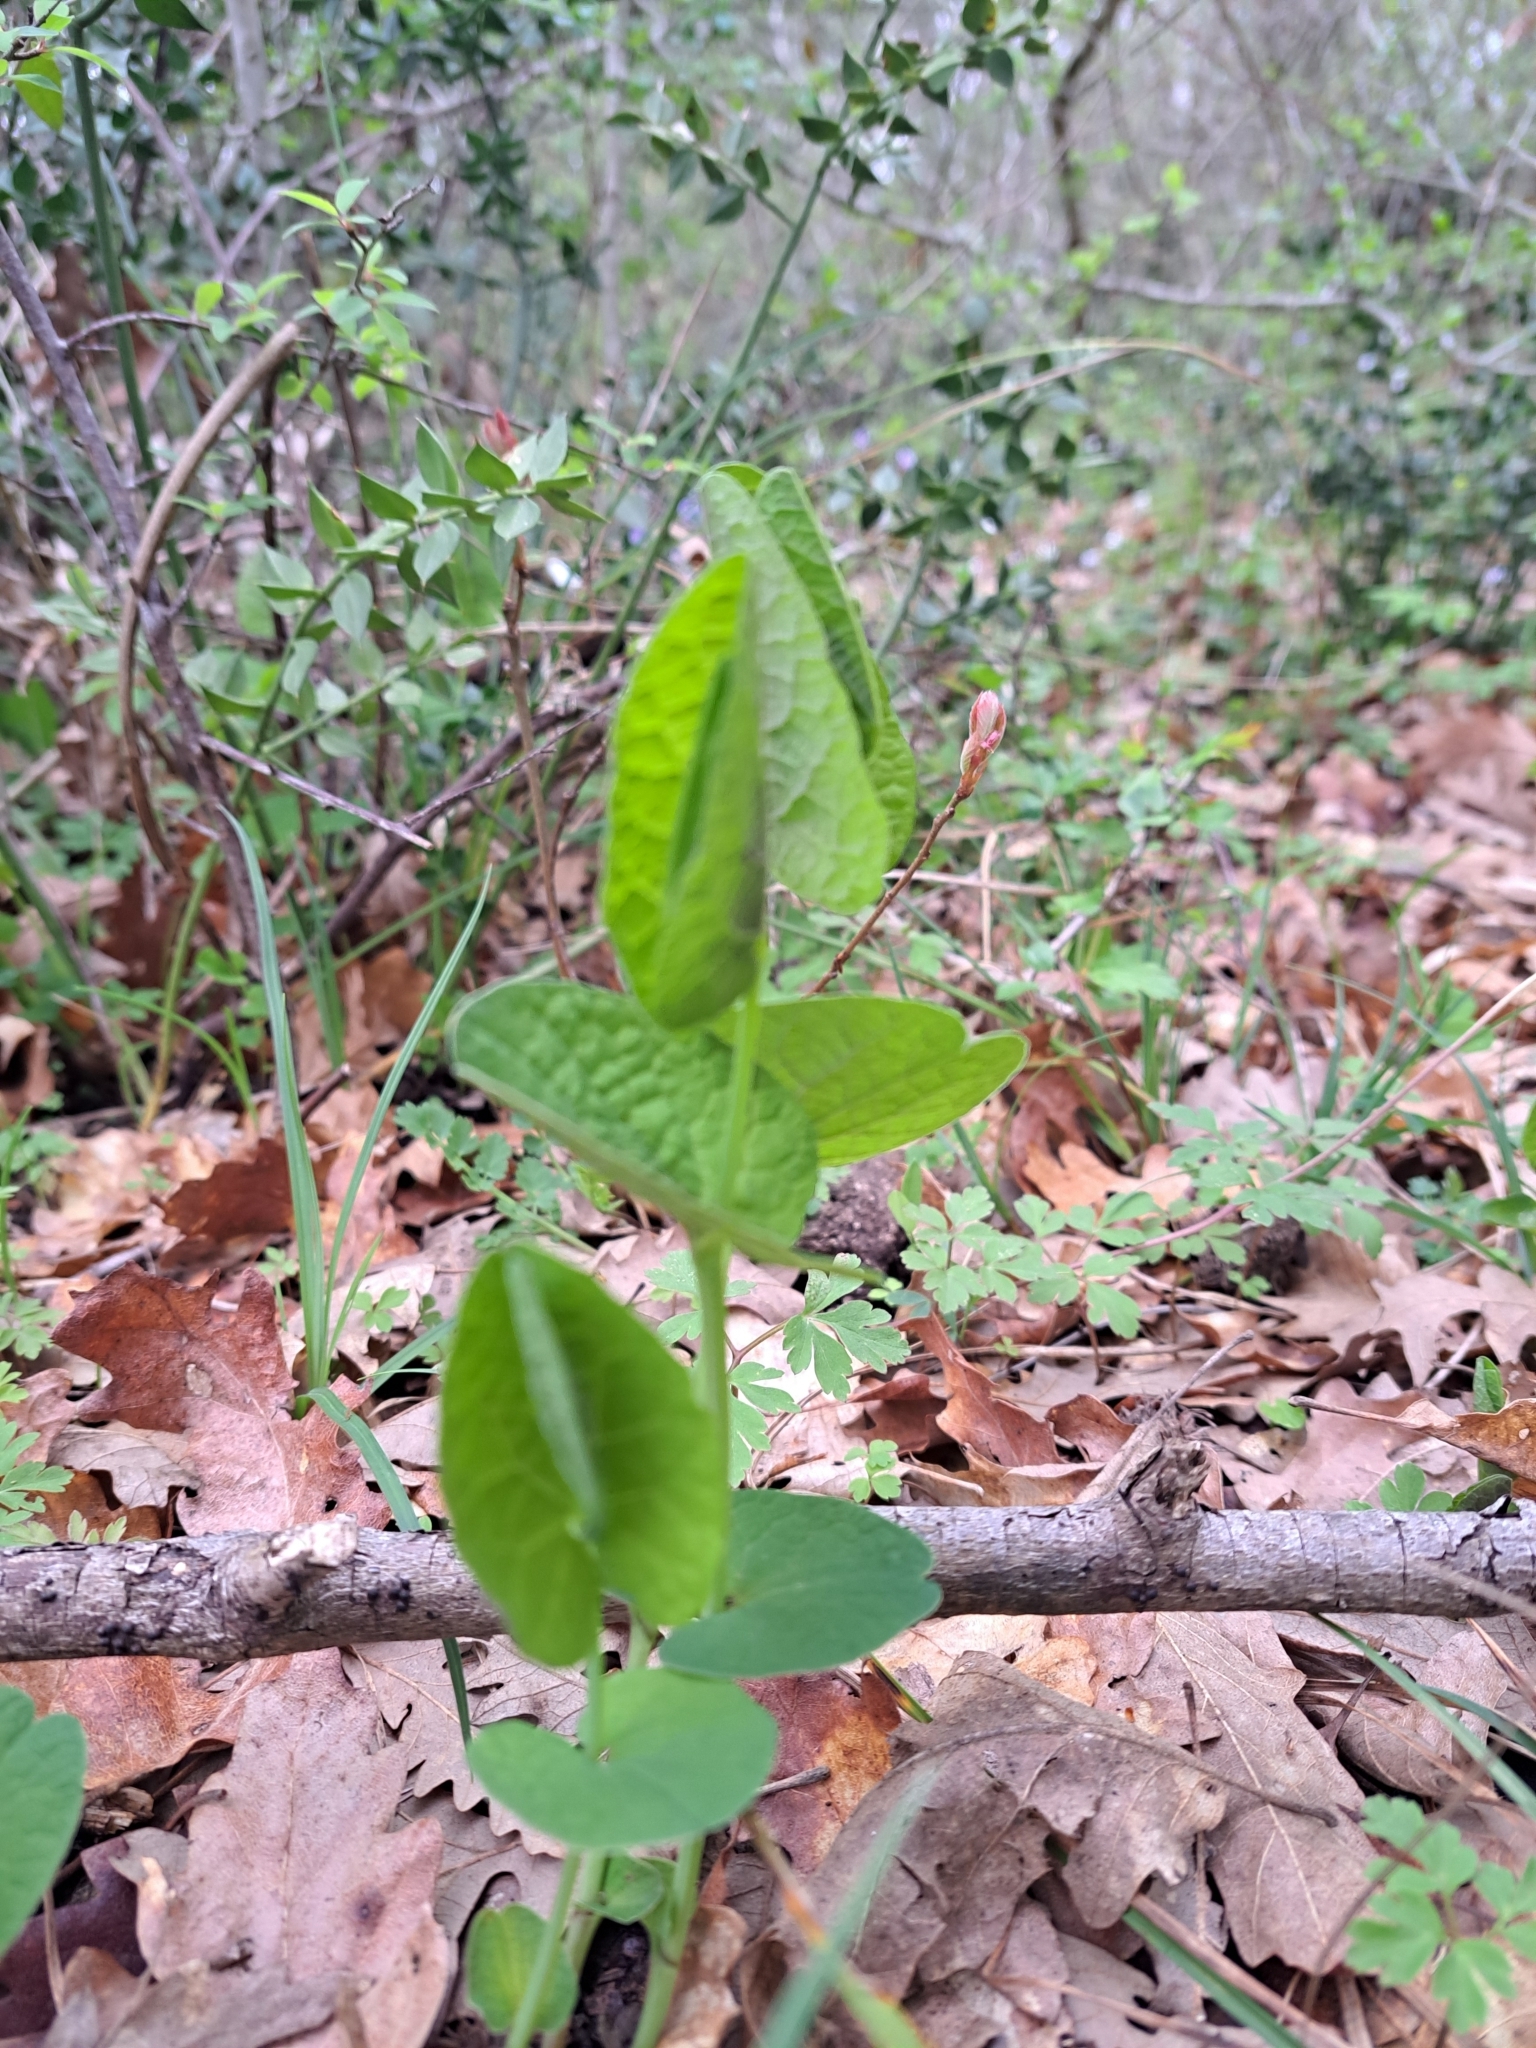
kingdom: Plantae
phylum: Tracheophyta
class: Magnoliopsida
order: Piperales
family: Aristolochiaceae
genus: Aristolochia
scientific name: Aristolochia rotunda
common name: Smearwort
